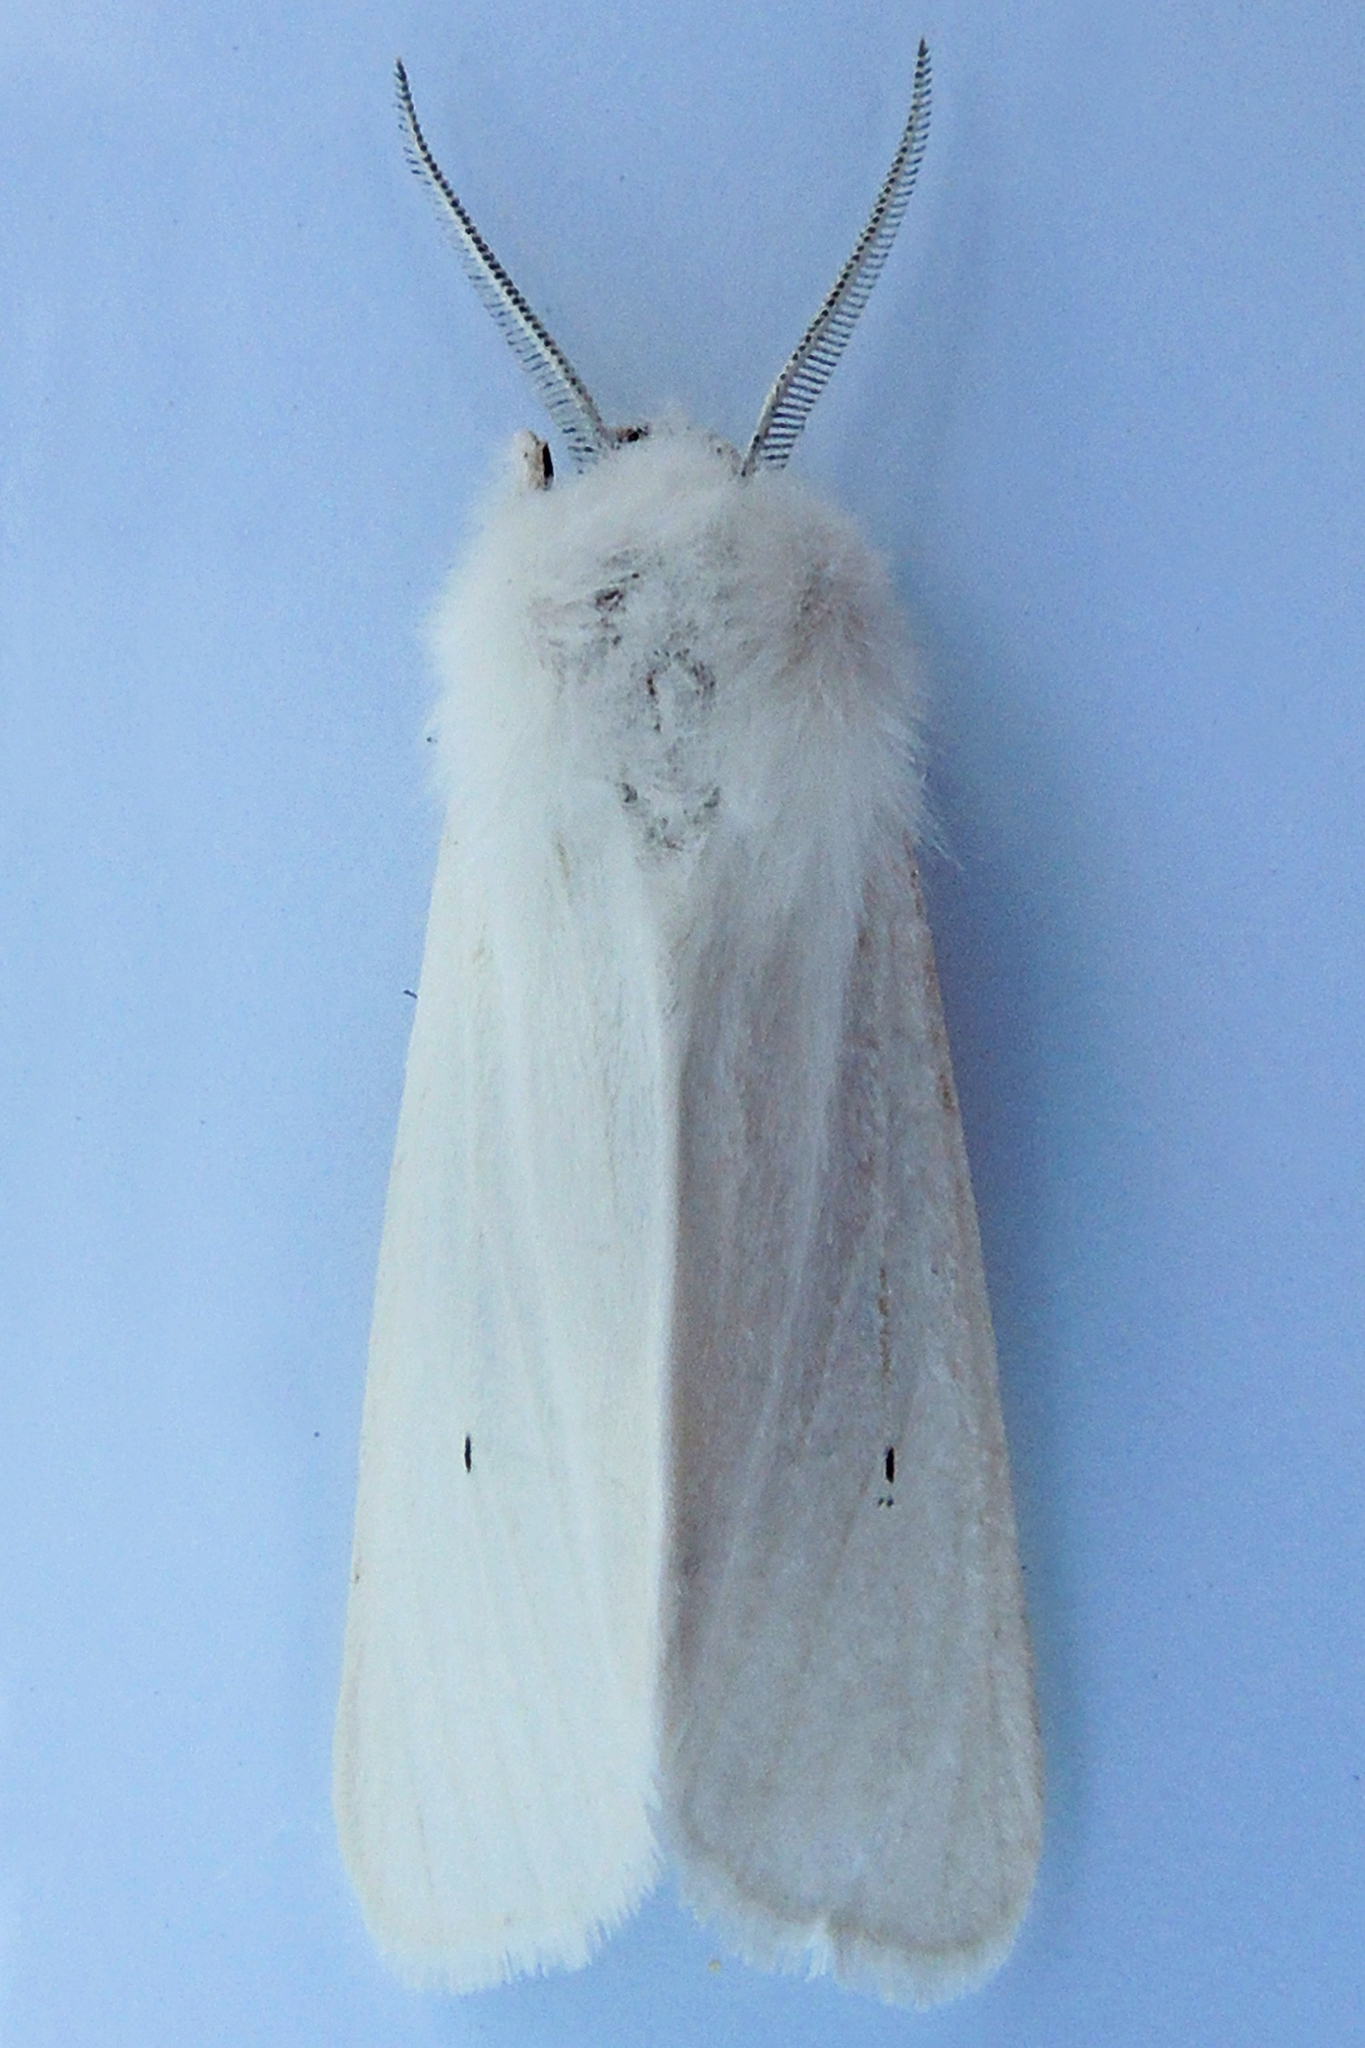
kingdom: Animalia
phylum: Arthropoda
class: Insecta
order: Lepidoptera
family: Erebidae
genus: Spilosoma
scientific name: Spilosoma virginica
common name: Virginia tiger moth
